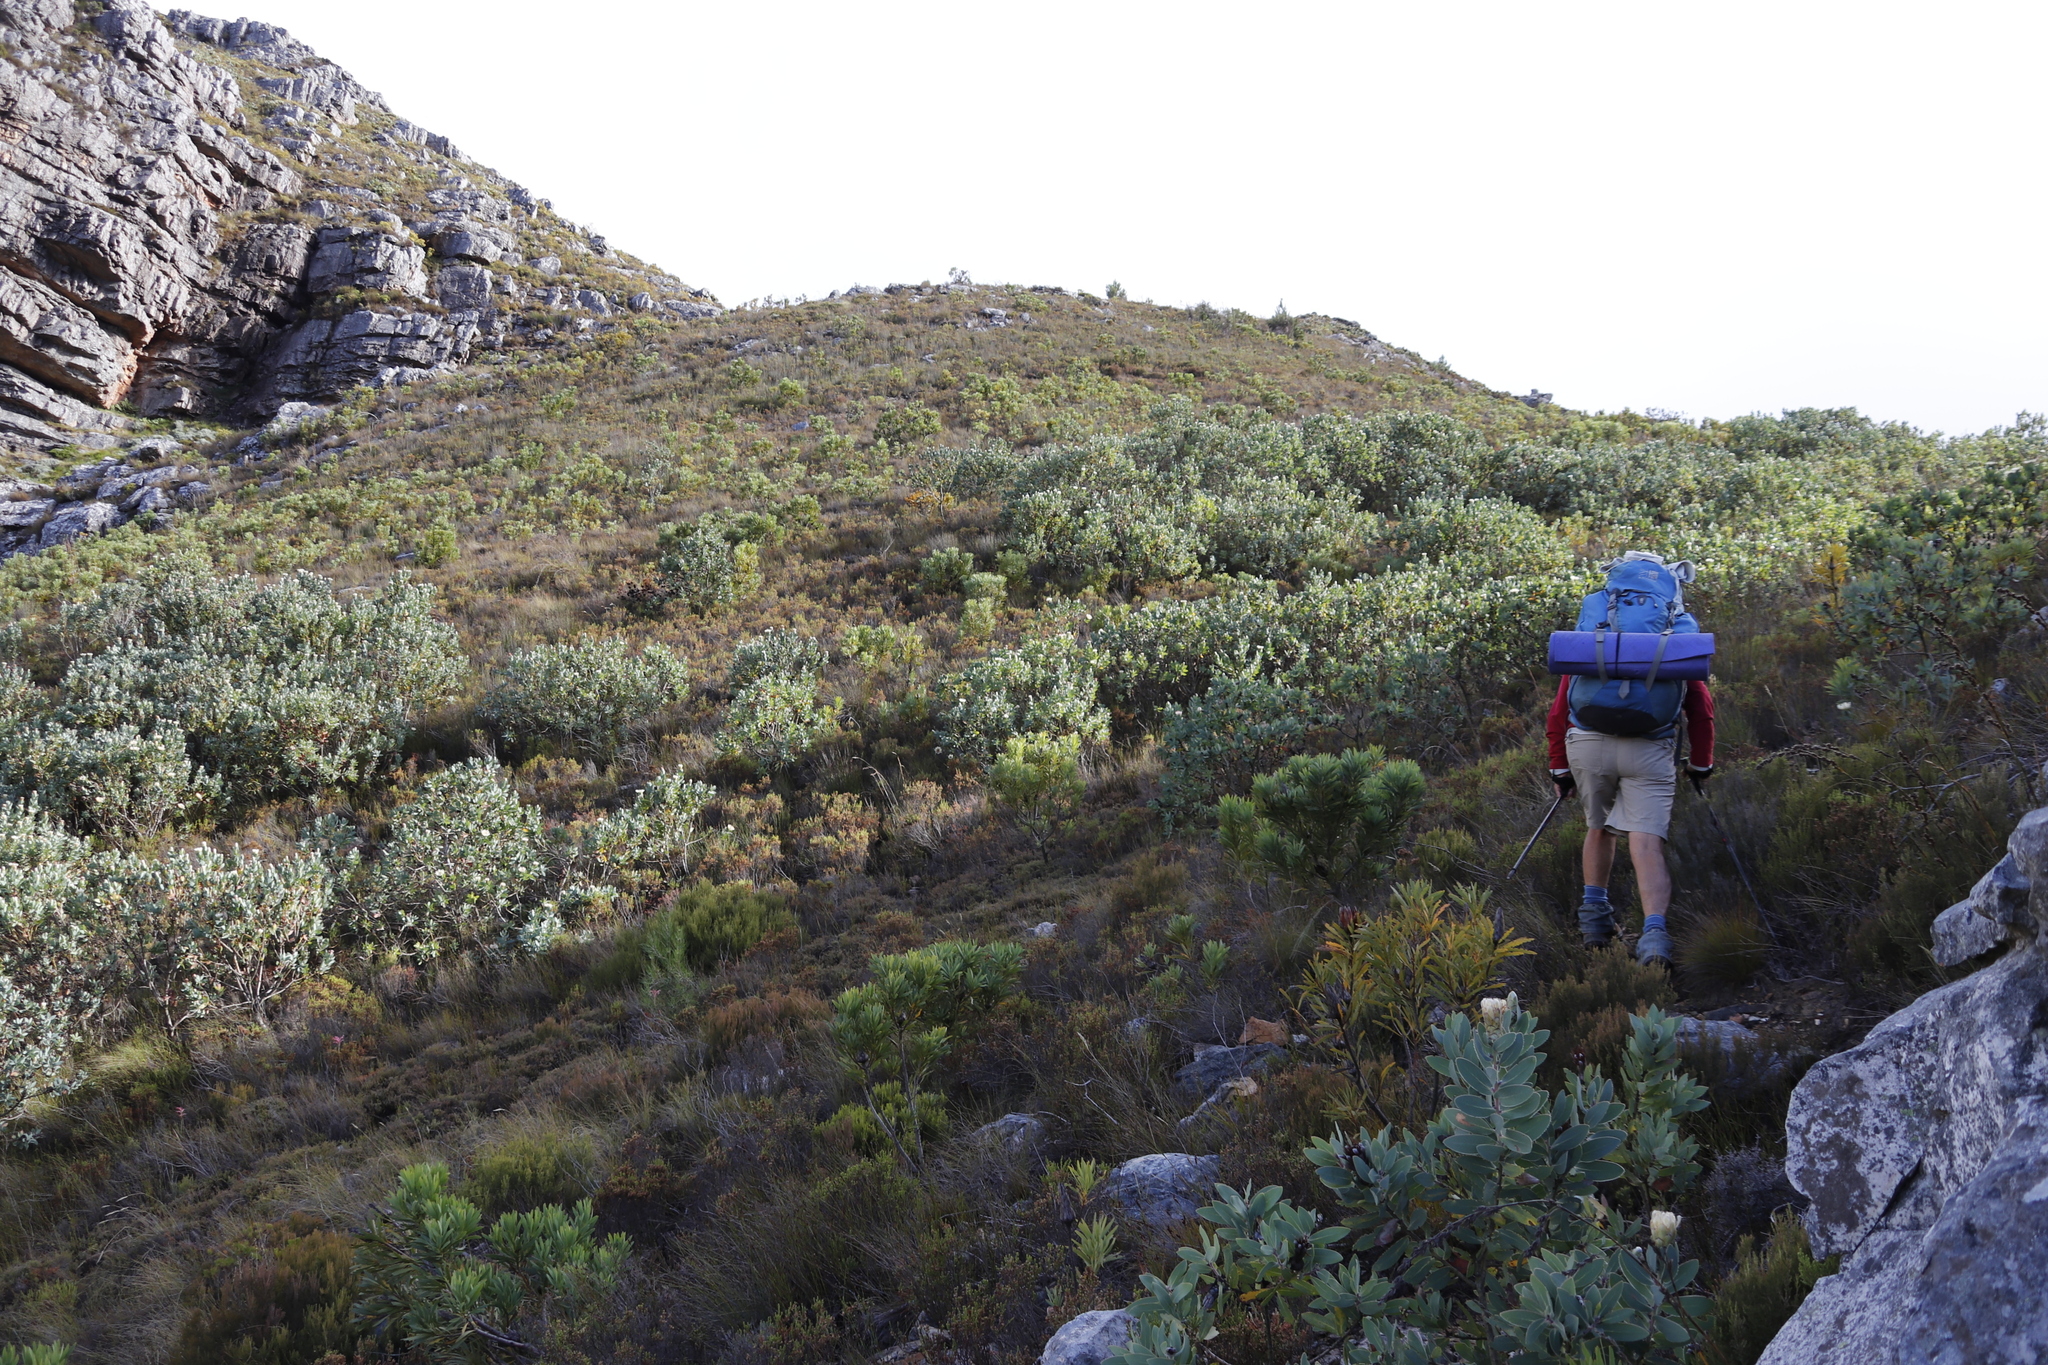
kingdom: Plantae
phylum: Tracheophyta
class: Magnoliopsida
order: Proteales
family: Proteaceae
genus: Protea
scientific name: Protea lacticolor
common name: Hottentot sugarbush
